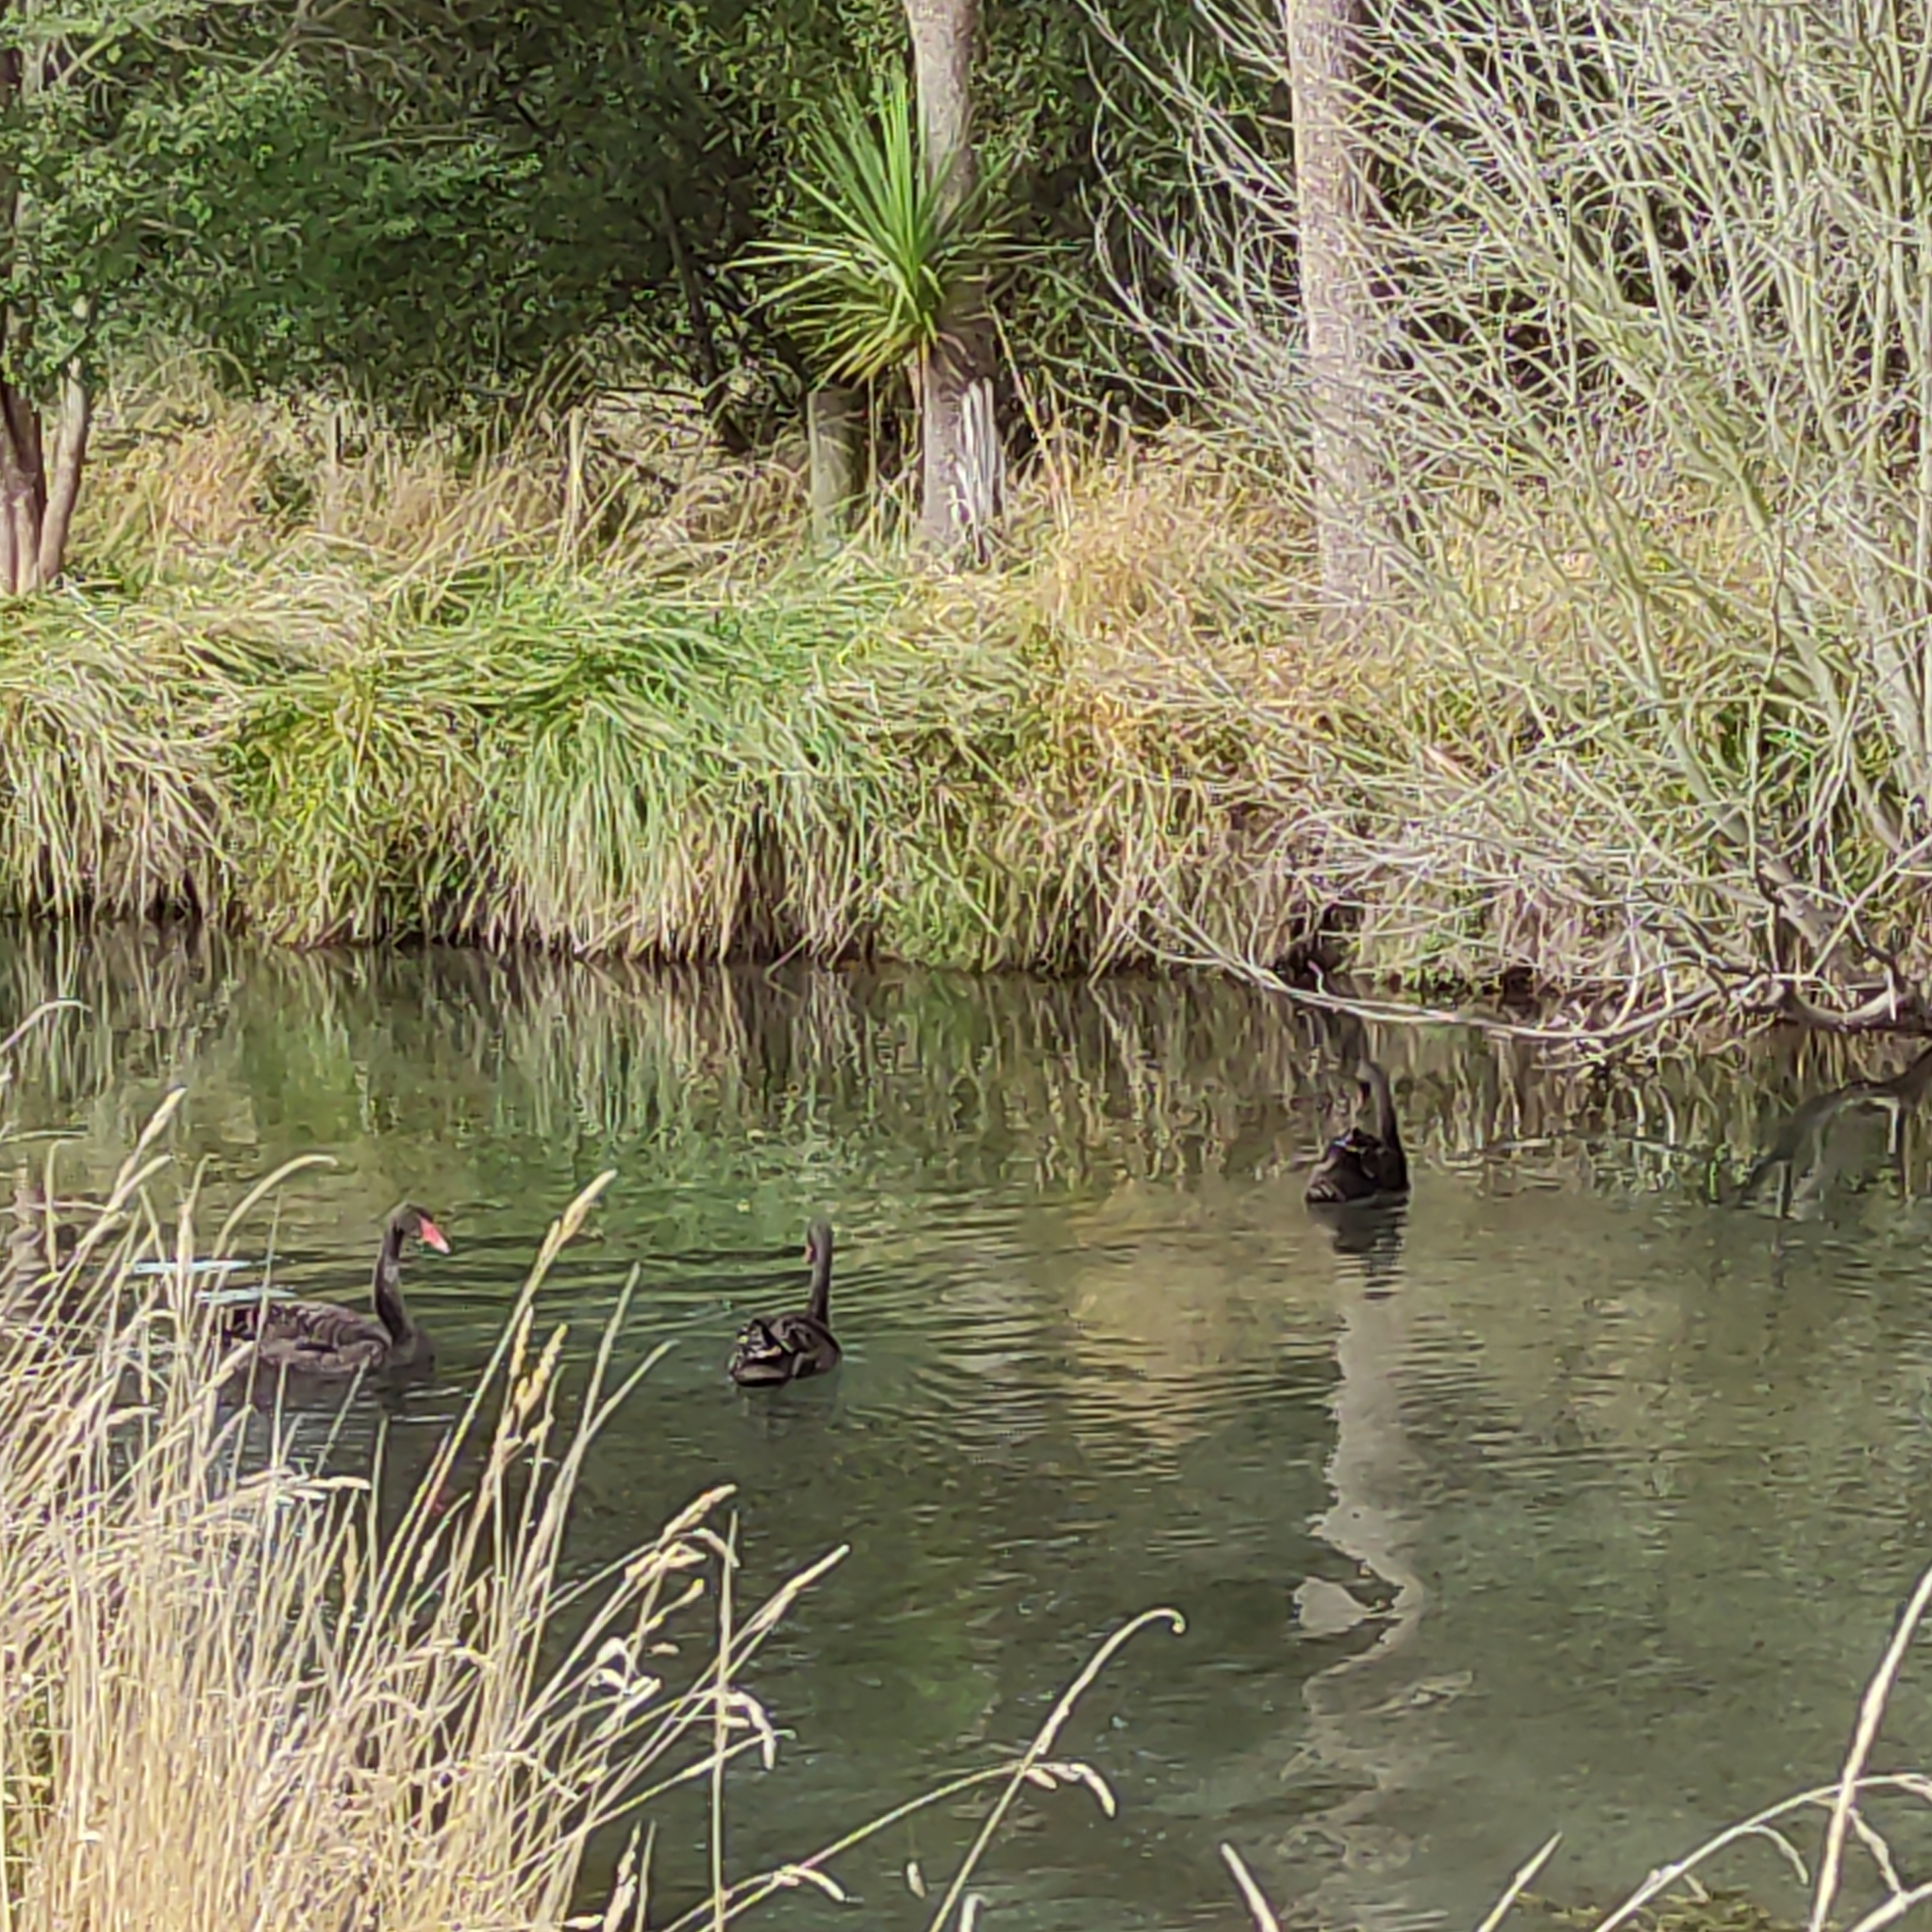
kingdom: Animalia
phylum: Chordata
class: Aves
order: Anseriformes
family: Anatidae
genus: Cygnus
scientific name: Cygnus atratus
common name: Black swan
